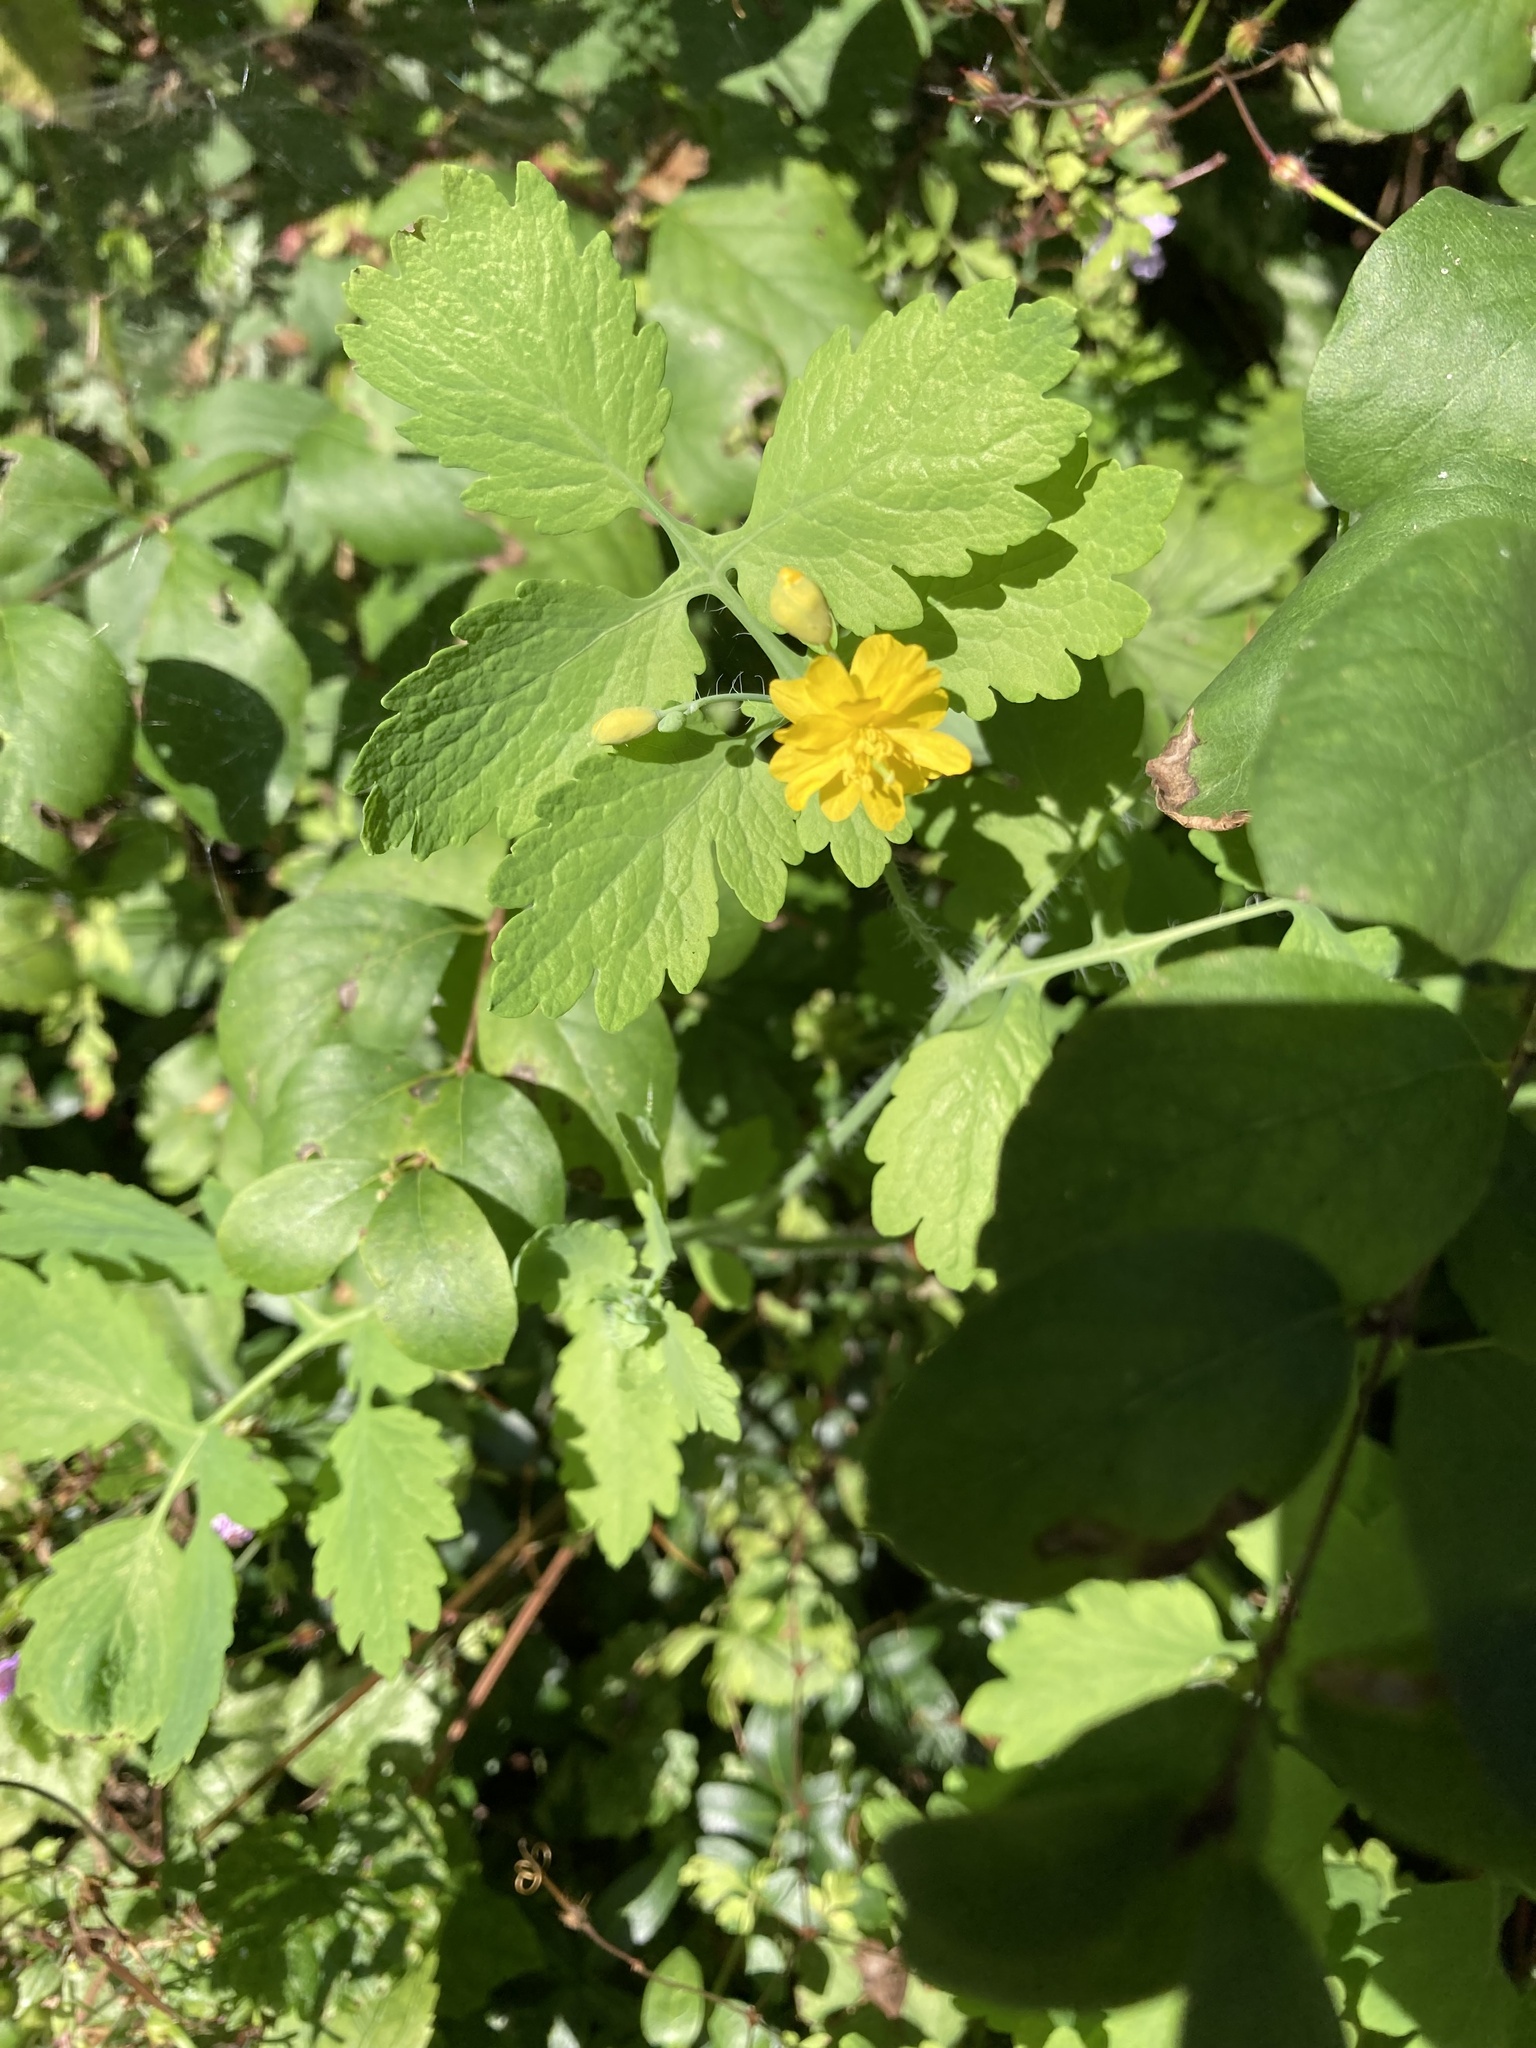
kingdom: Plantae
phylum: Tracheophyta
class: Magnoliopsida
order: Ranunculales
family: Papaveraceae
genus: Chelidonium
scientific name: Chelidonium majus
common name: Greater celandine
